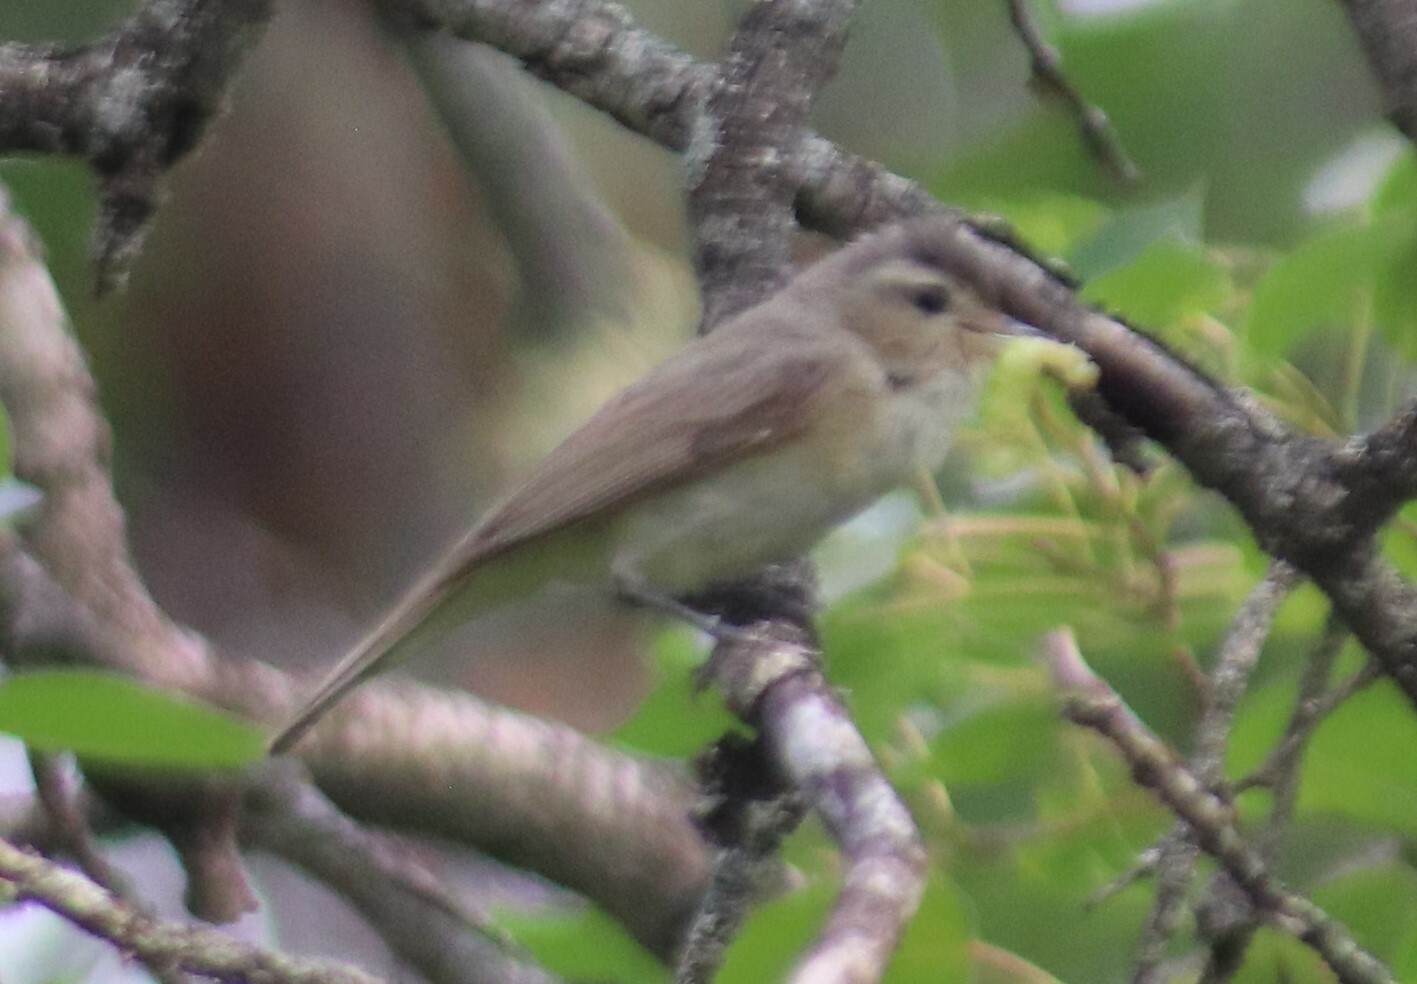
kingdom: Animalia
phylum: Chordata
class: Aves
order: Passeriformes
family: Vireonidae
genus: Vireo
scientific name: Vireo gilvus
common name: Warbling vireo
